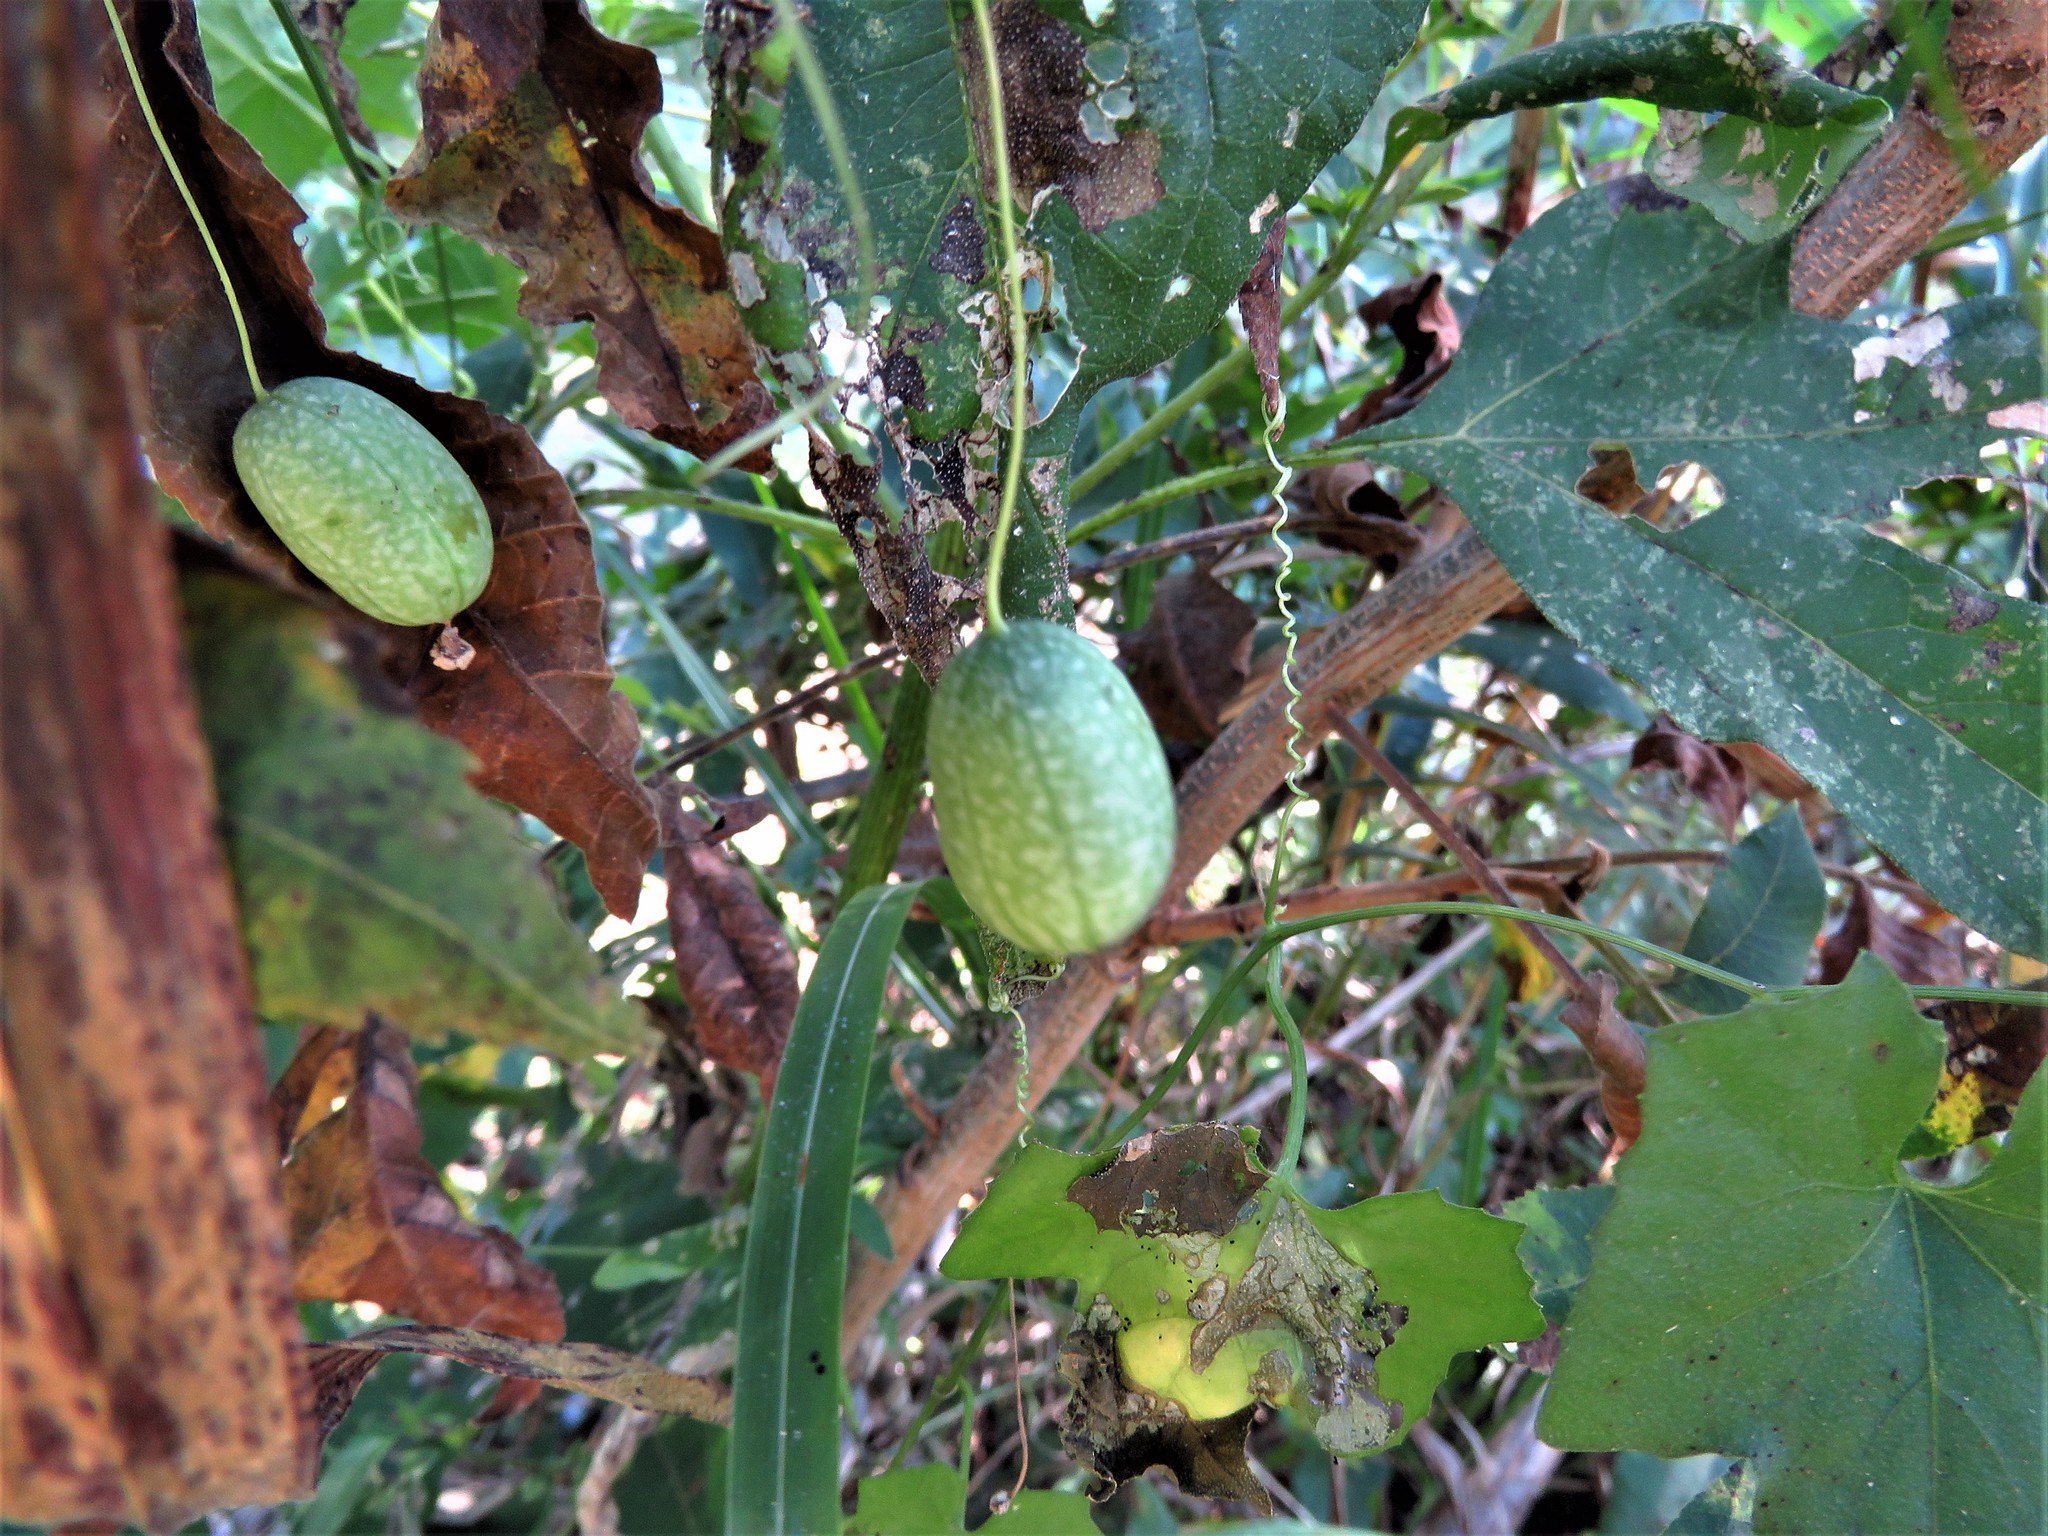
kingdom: Plantae
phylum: Tracheophyta
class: Magnoliopsida
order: Cucurbitales
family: Cucurbitaceae
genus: Melothria
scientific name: Melothria pendula
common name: Creeping-cucumber
